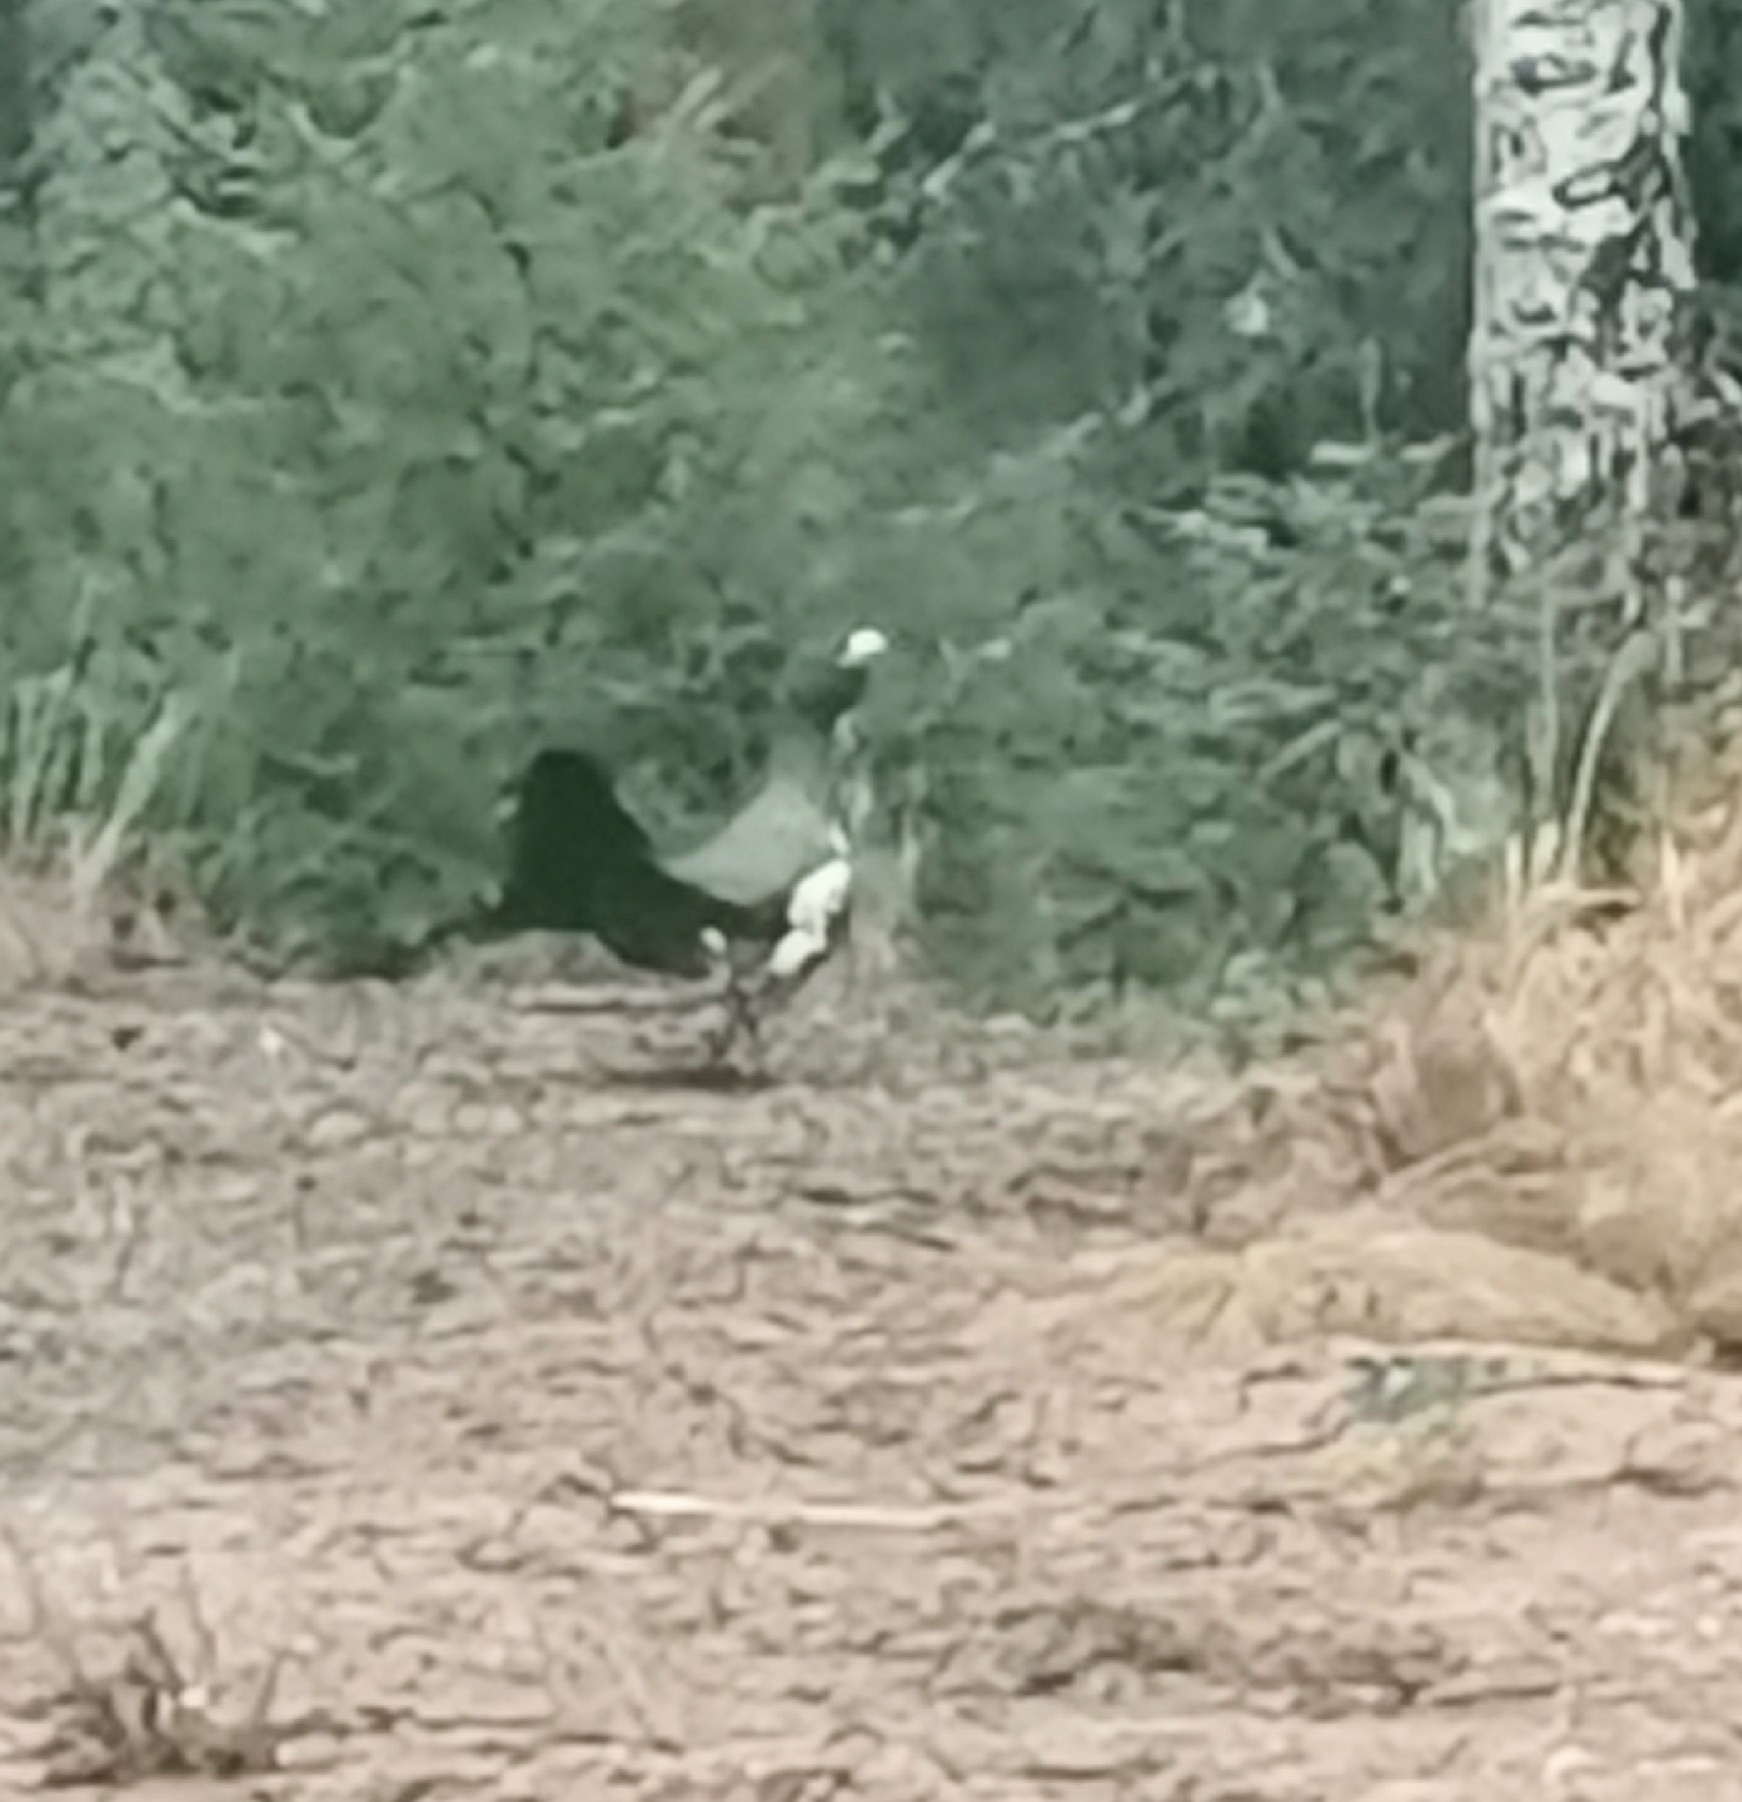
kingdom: Animalia
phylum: Chordata
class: Aves
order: Galliformes
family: Phasianidae
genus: Tetrao
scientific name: Tetrao urogallus
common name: Western capercaillie
